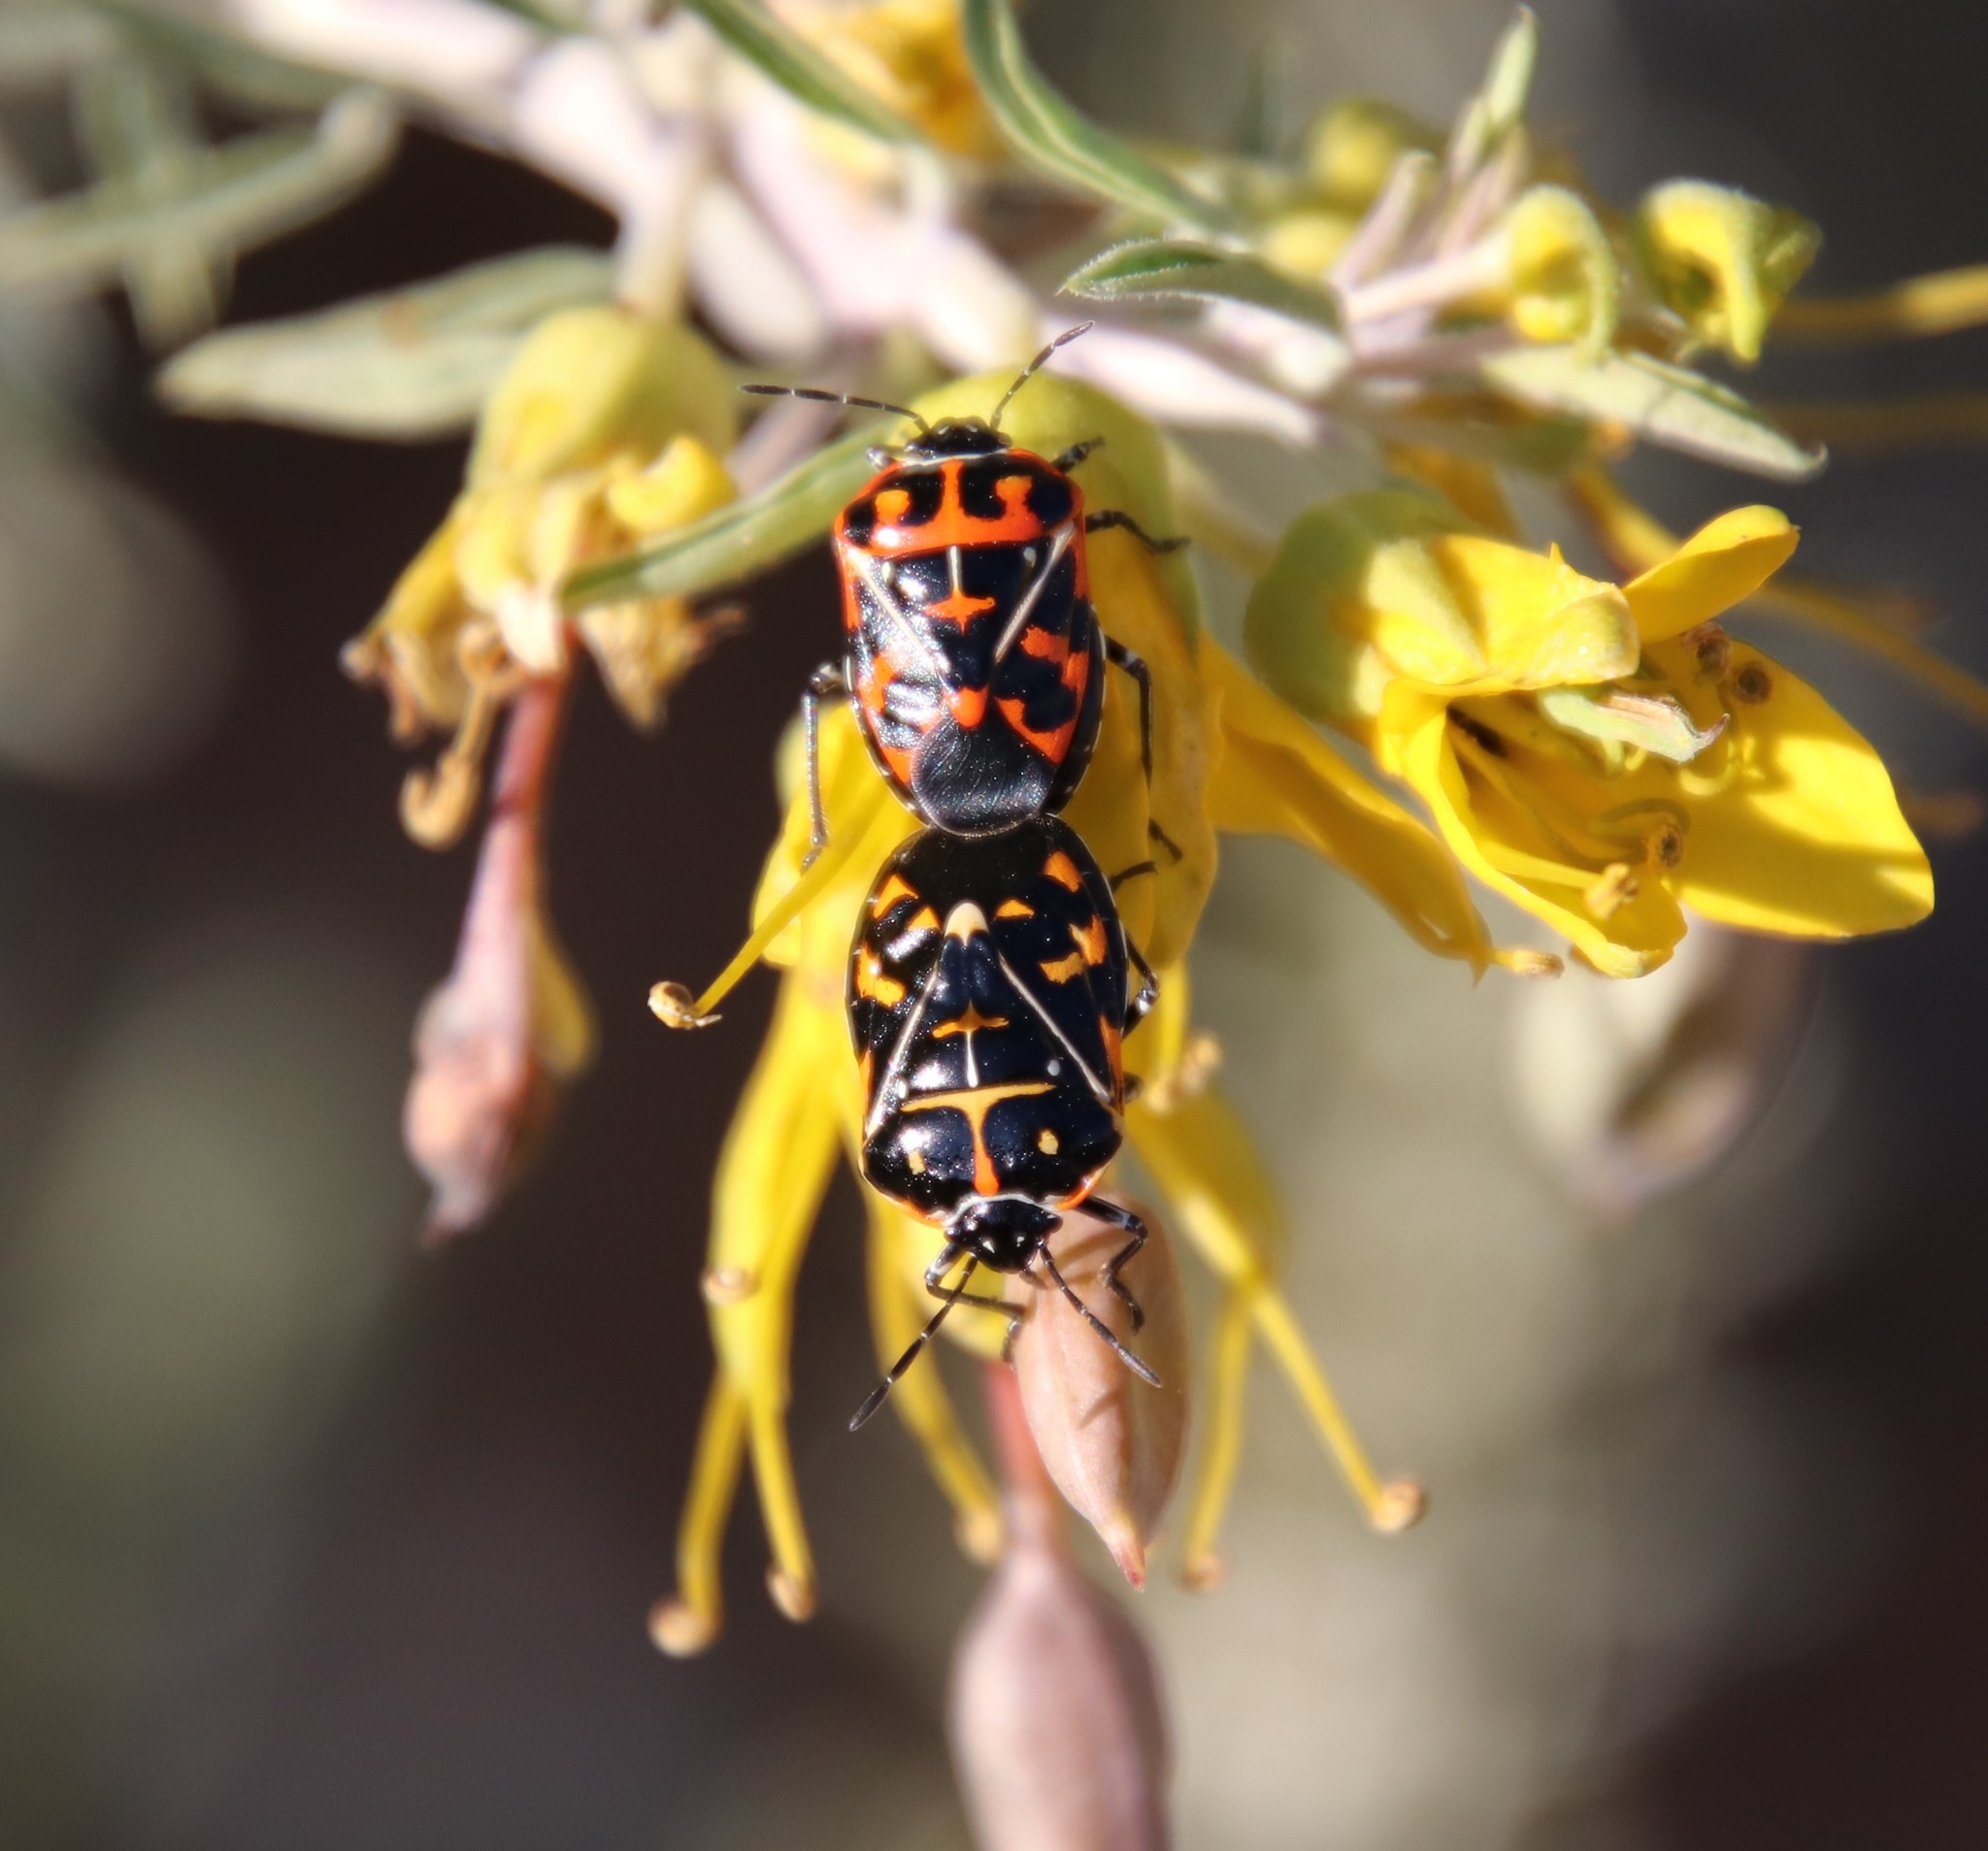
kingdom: Animalia
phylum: Arthropoda
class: Insecta
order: Hemiptera
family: Pentatomidae
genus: Murgantia
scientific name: Murgantia histrionica
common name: Harlequin bug
